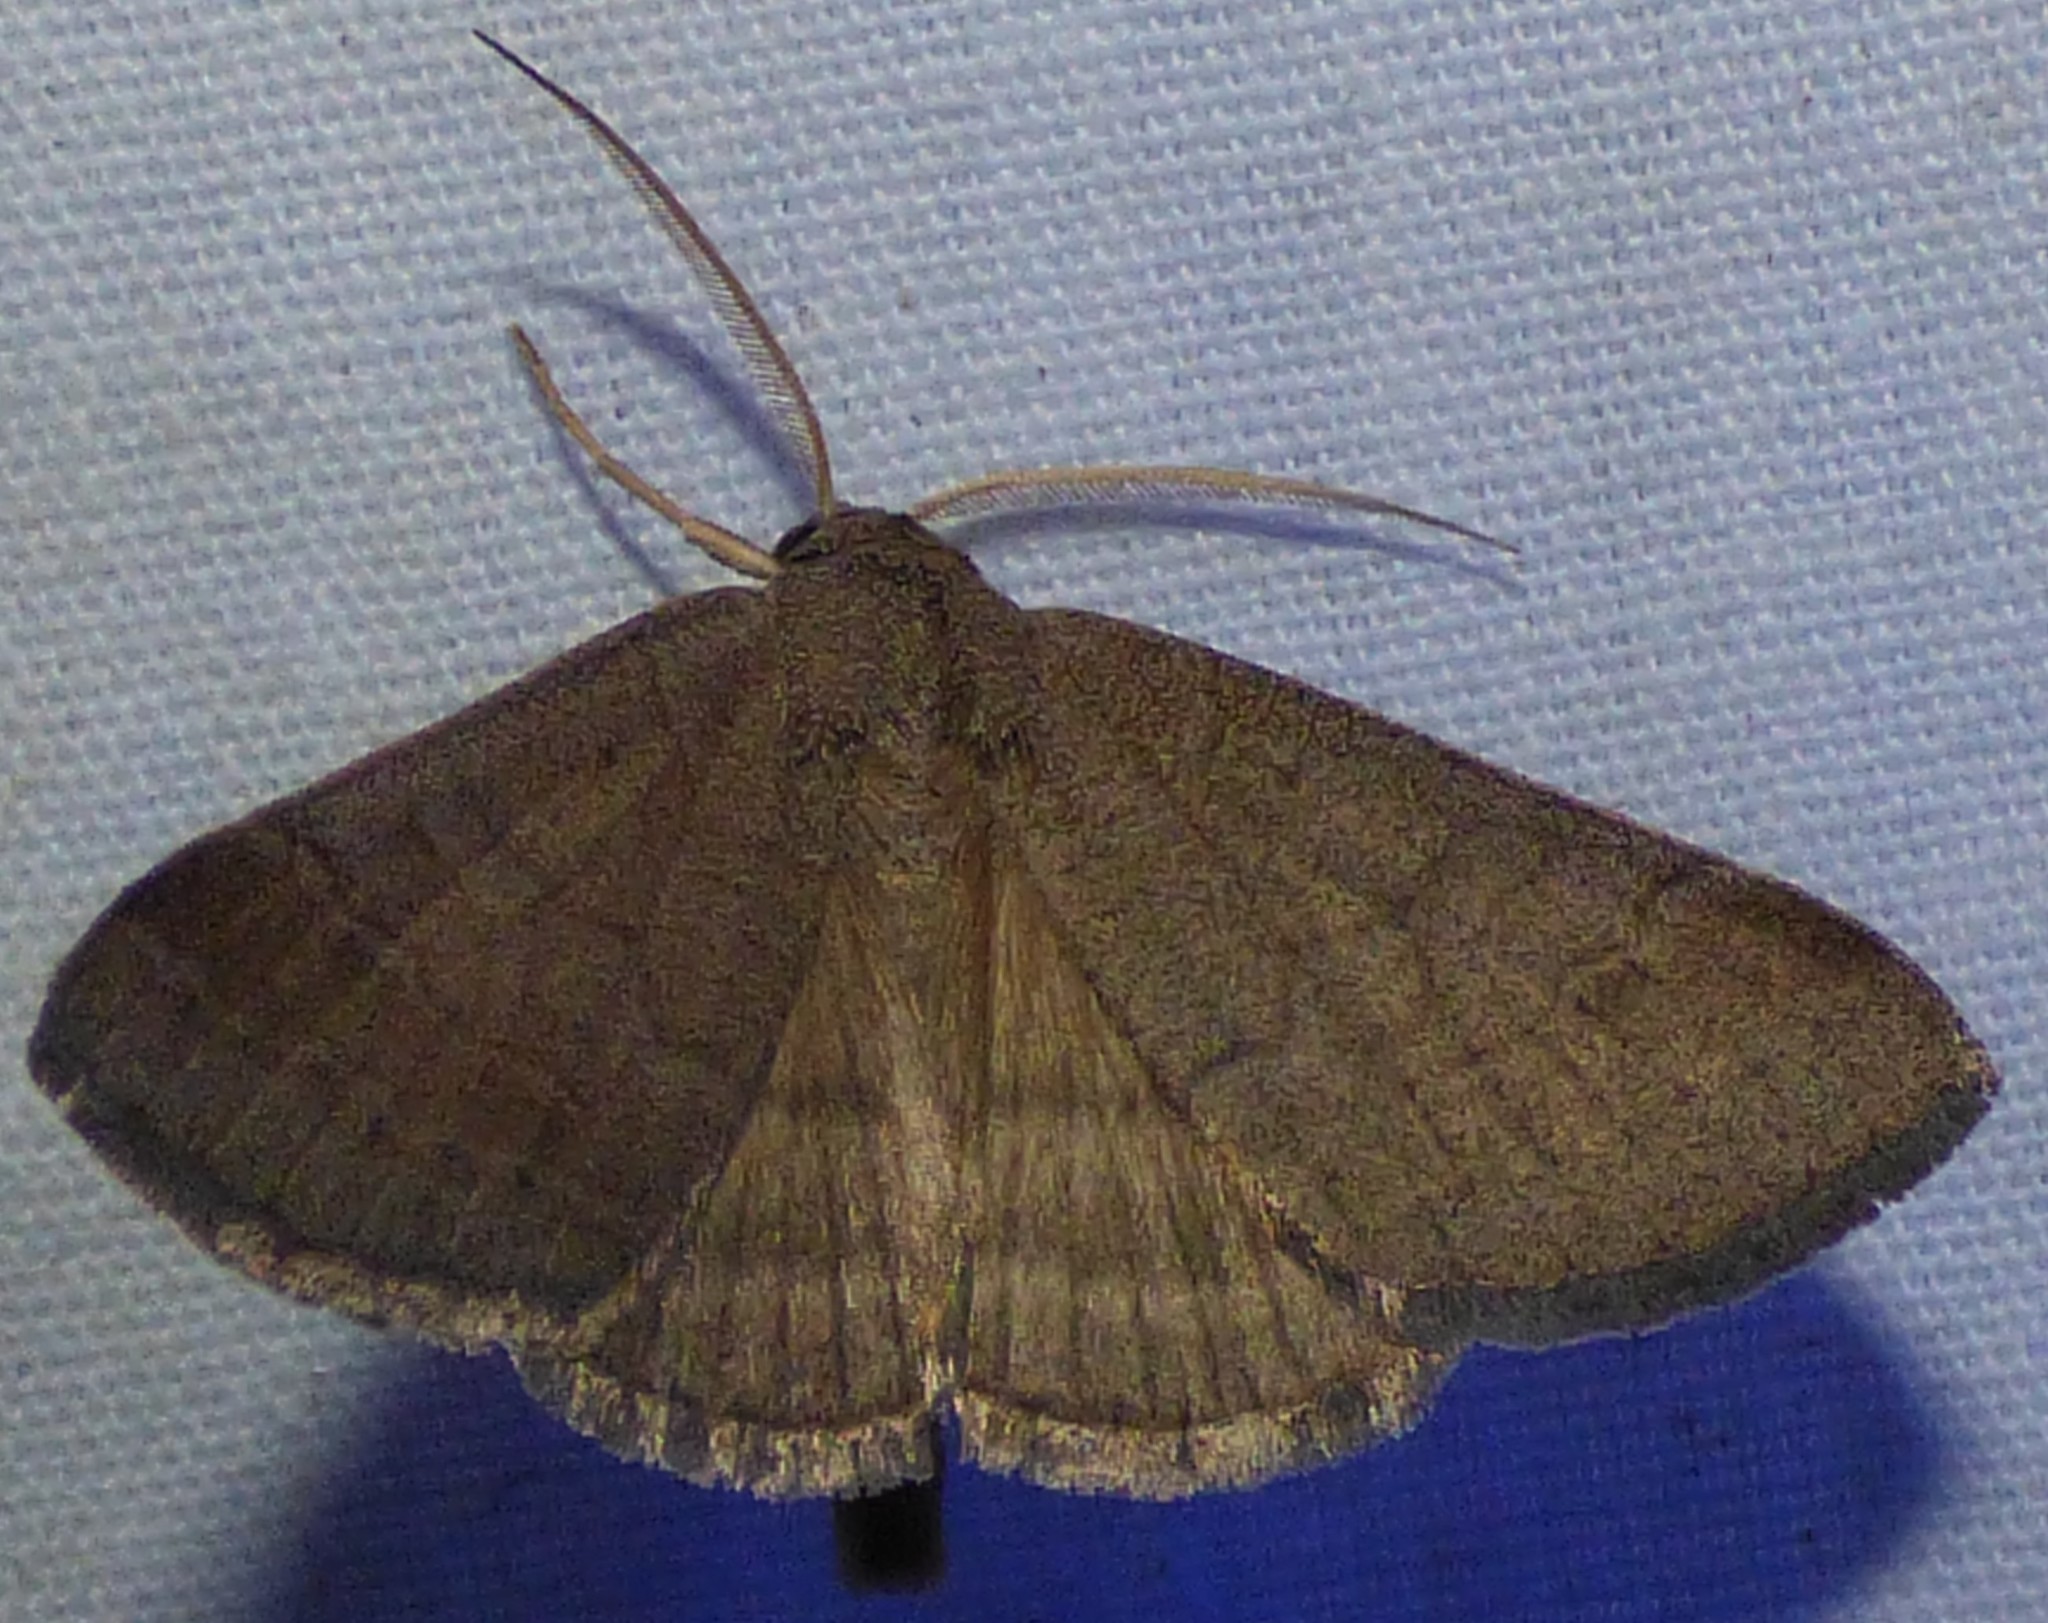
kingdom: Animalia
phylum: Arthropoda
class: Insecta
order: Lepidoptera
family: Erebidae
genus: Caenurgia
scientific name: Caenurgia chloropha
